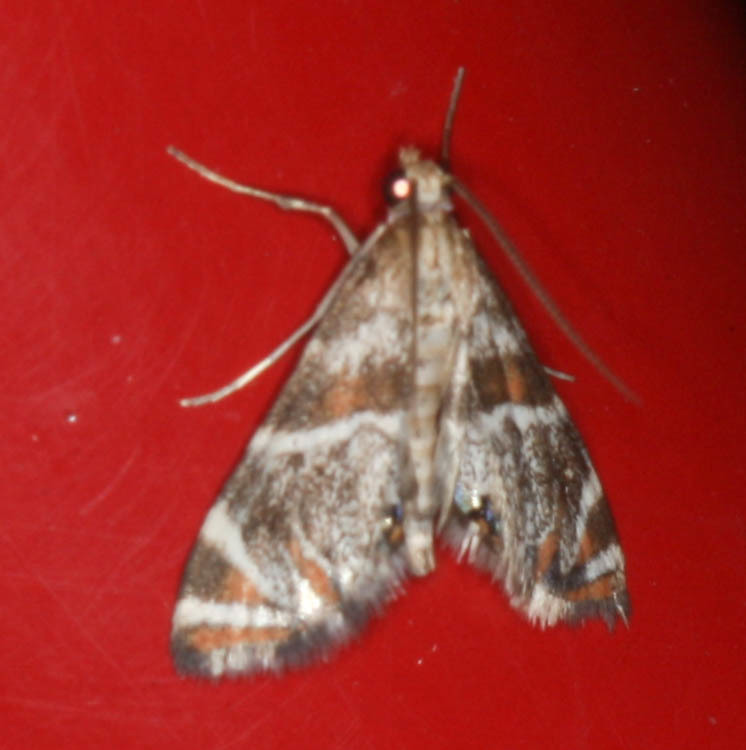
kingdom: Animalia
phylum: Arthropoda
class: Insecta
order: Lepidoptera
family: Crambidae
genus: Petrophila
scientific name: Petrophila jaliscalis
